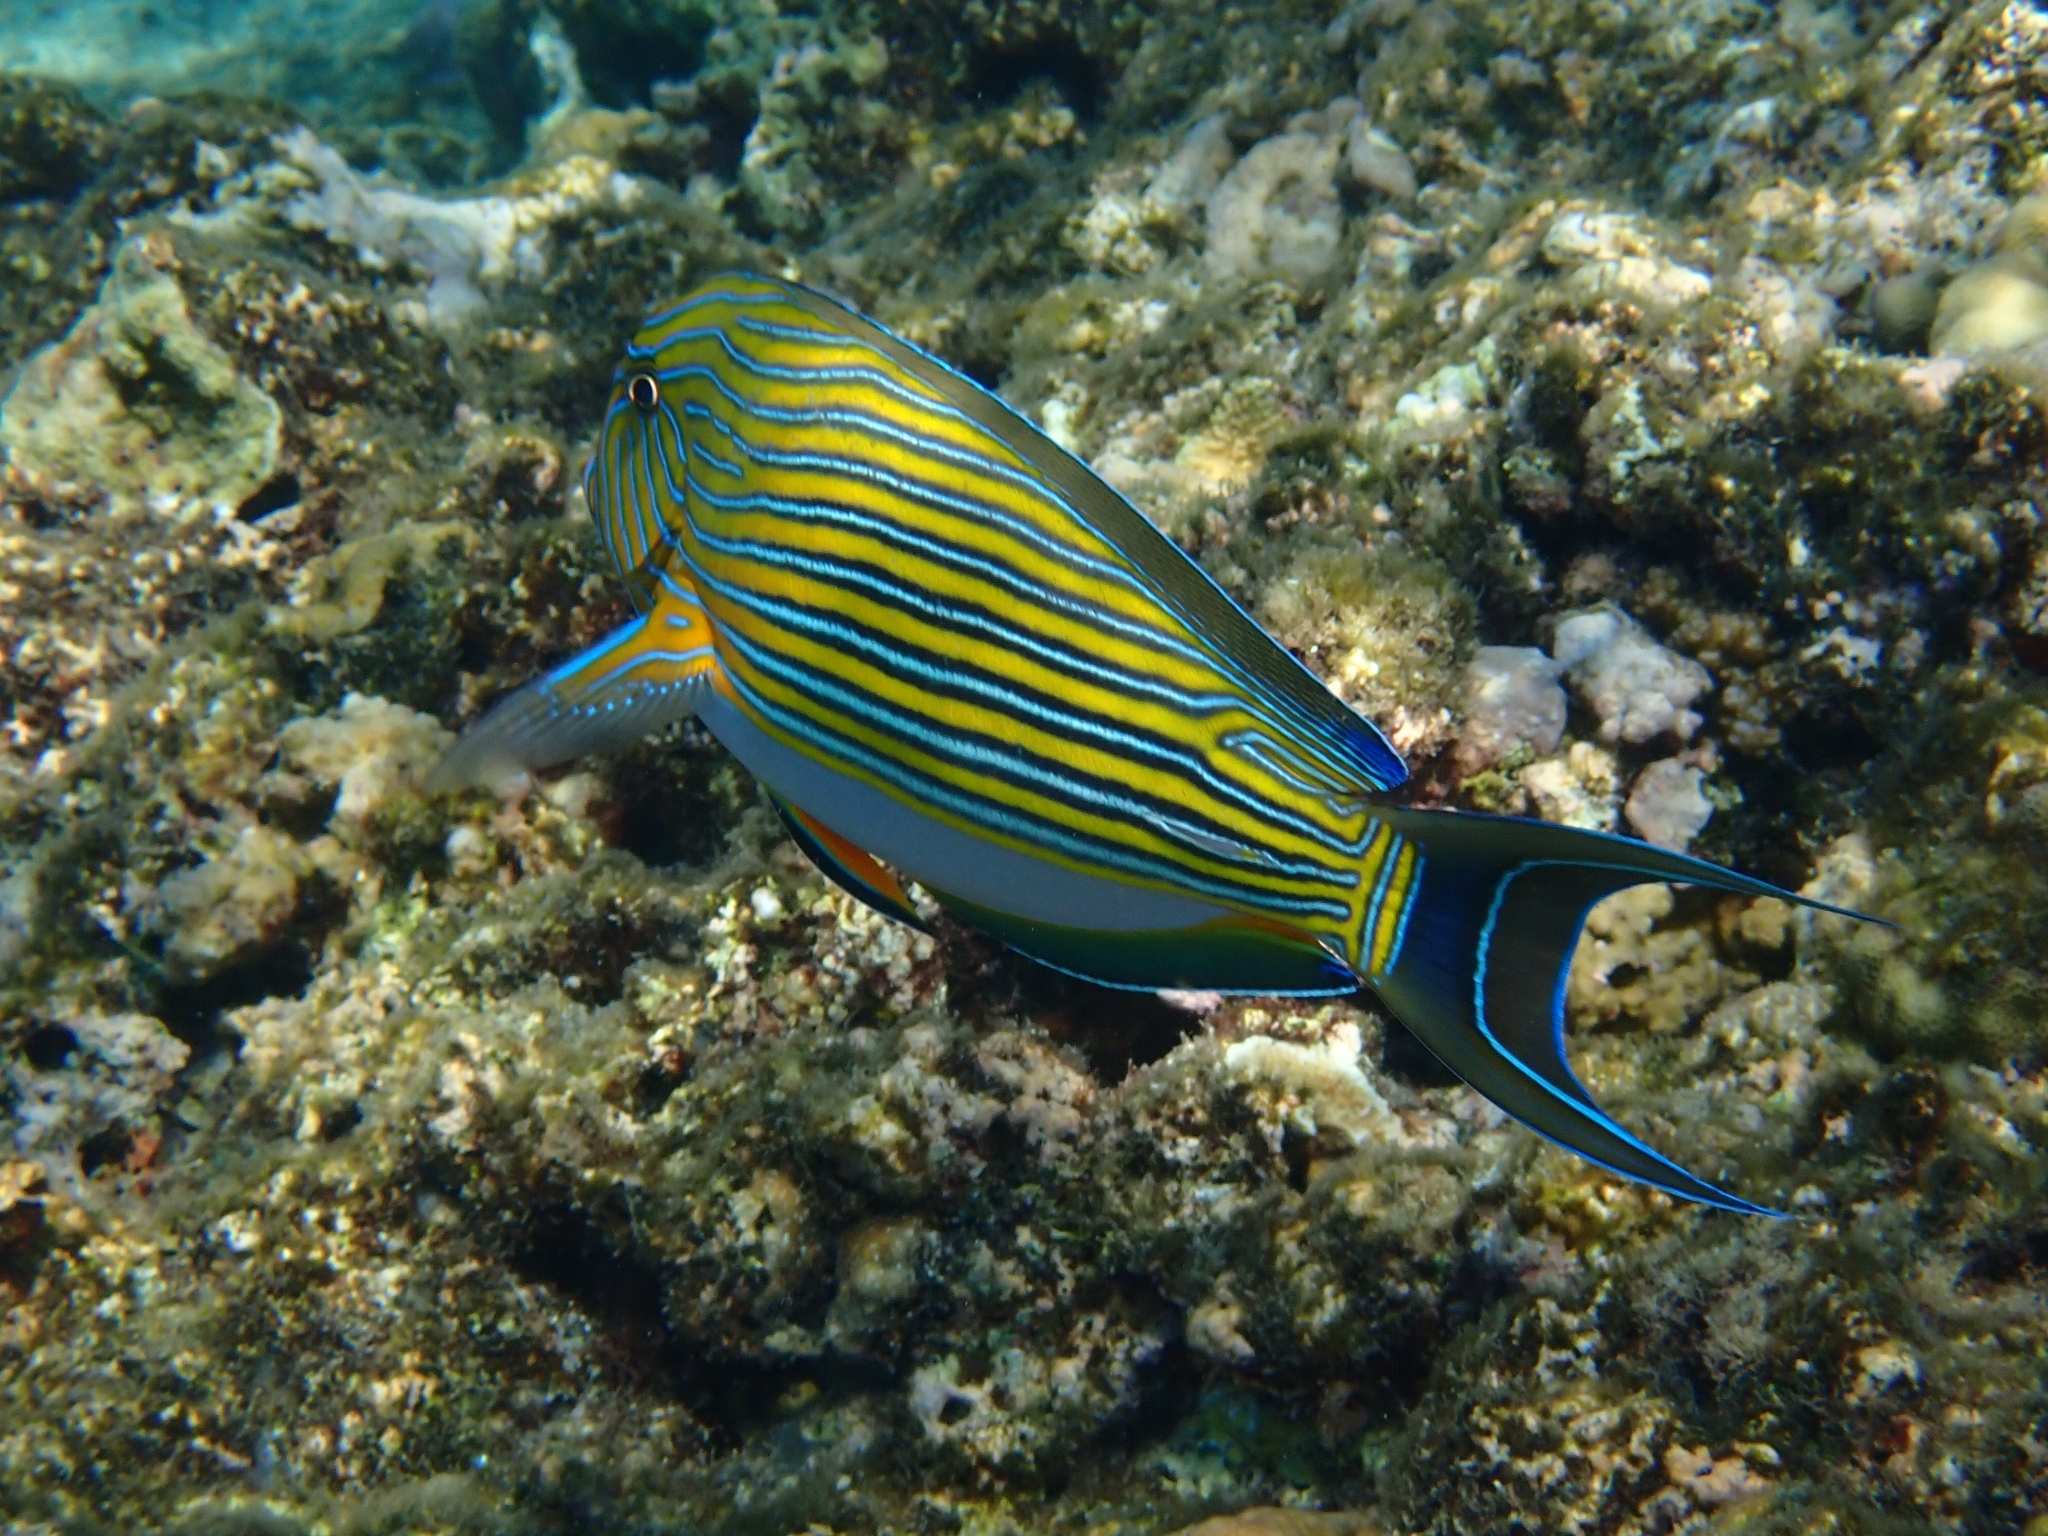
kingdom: Animalia
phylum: Chordata
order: Perciformes
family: Acanthuridae
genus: Acanthurus
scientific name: Acanthurus lineatus
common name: Striped surgeonfish
